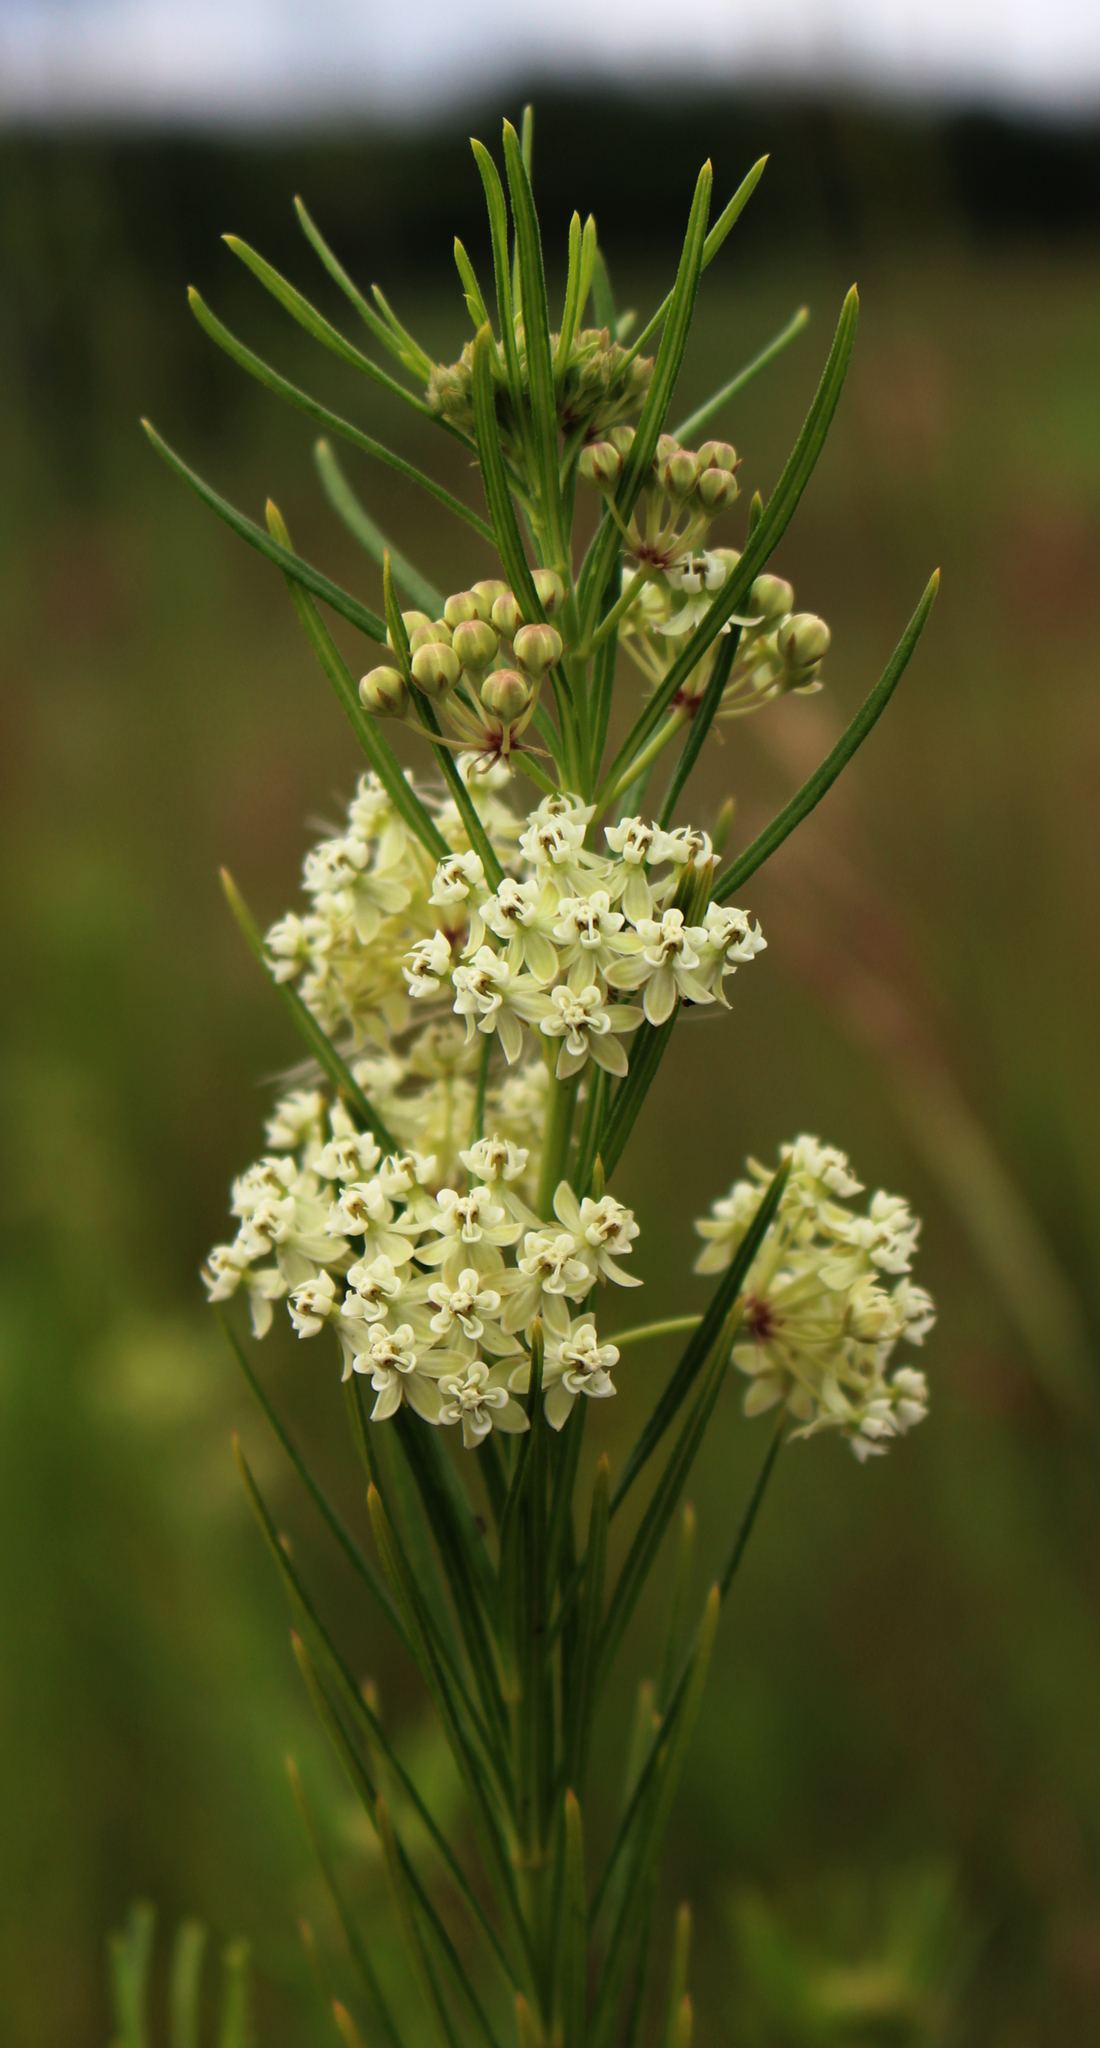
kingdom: Plantae
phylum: Tracheophyta
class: Magnoliopsida
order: Gentianales
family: Apocynaceae
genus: Asclepias
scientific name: Asclepias verticillata
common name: Eastern whorled milkweed
